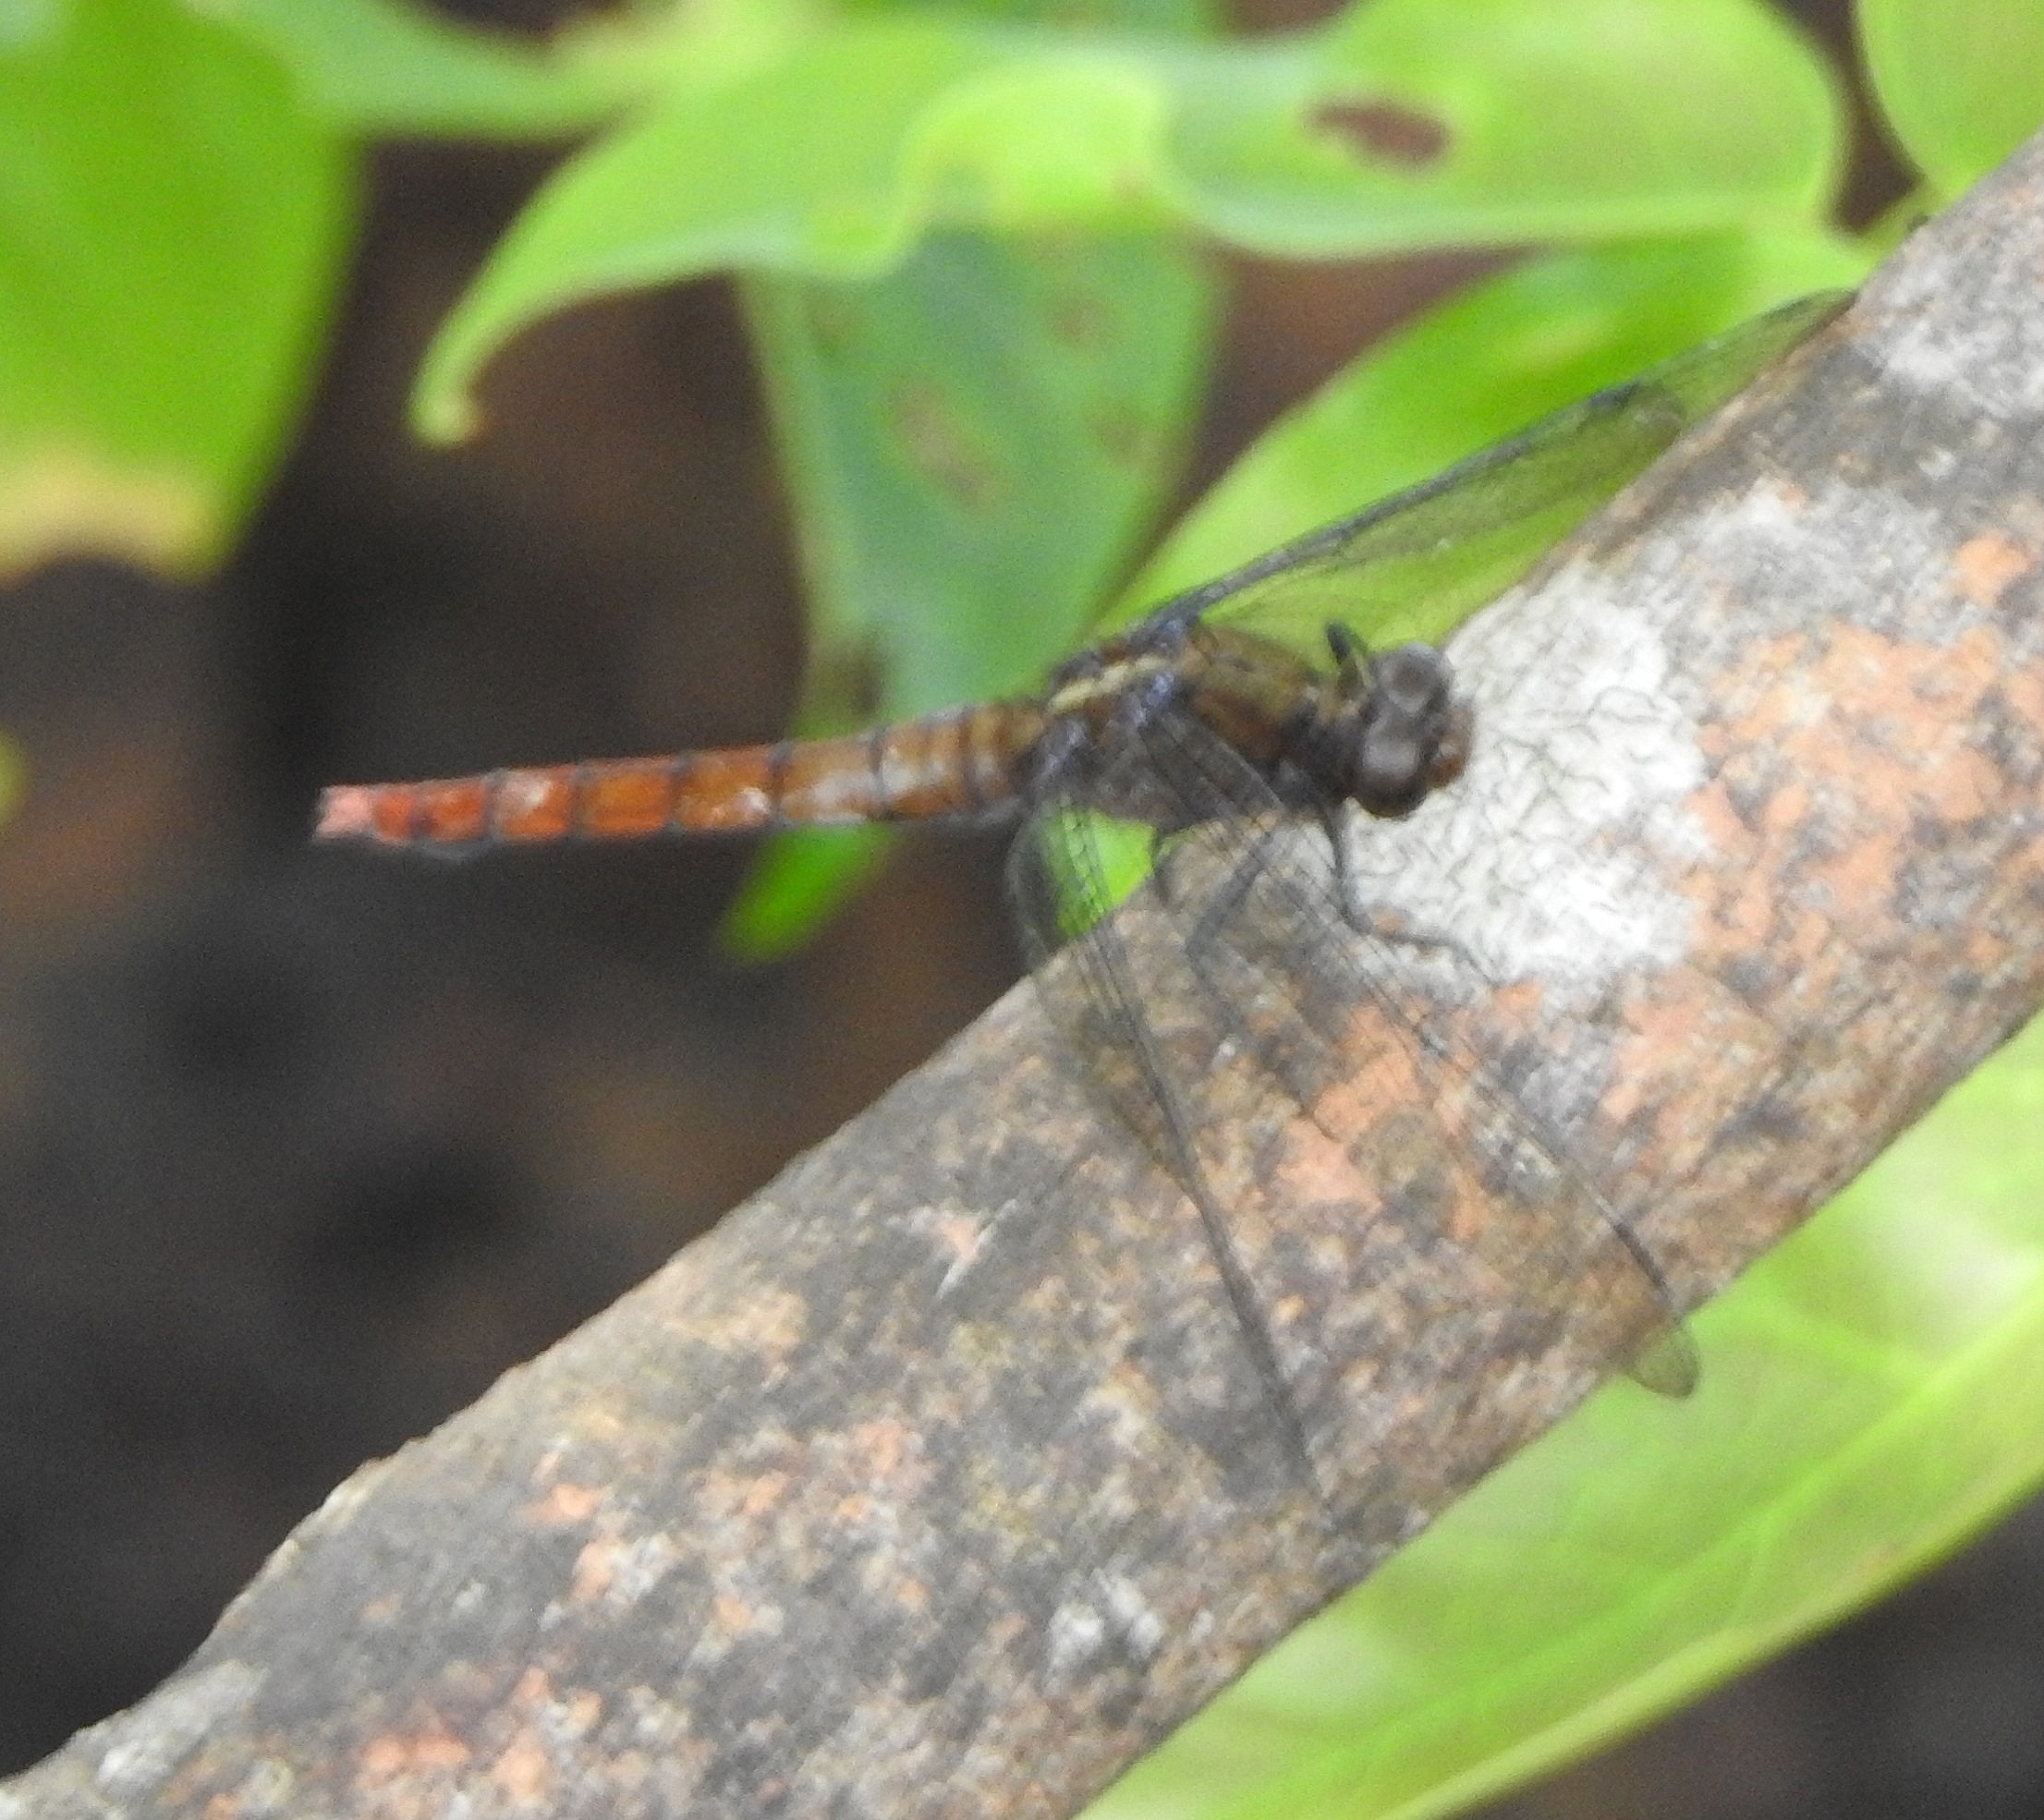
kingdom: Animalia
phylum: Arthropoda
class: Insecta
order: Odonata
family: Libellulidae
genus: Orthetrum
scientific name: Orthetrum chrysis
